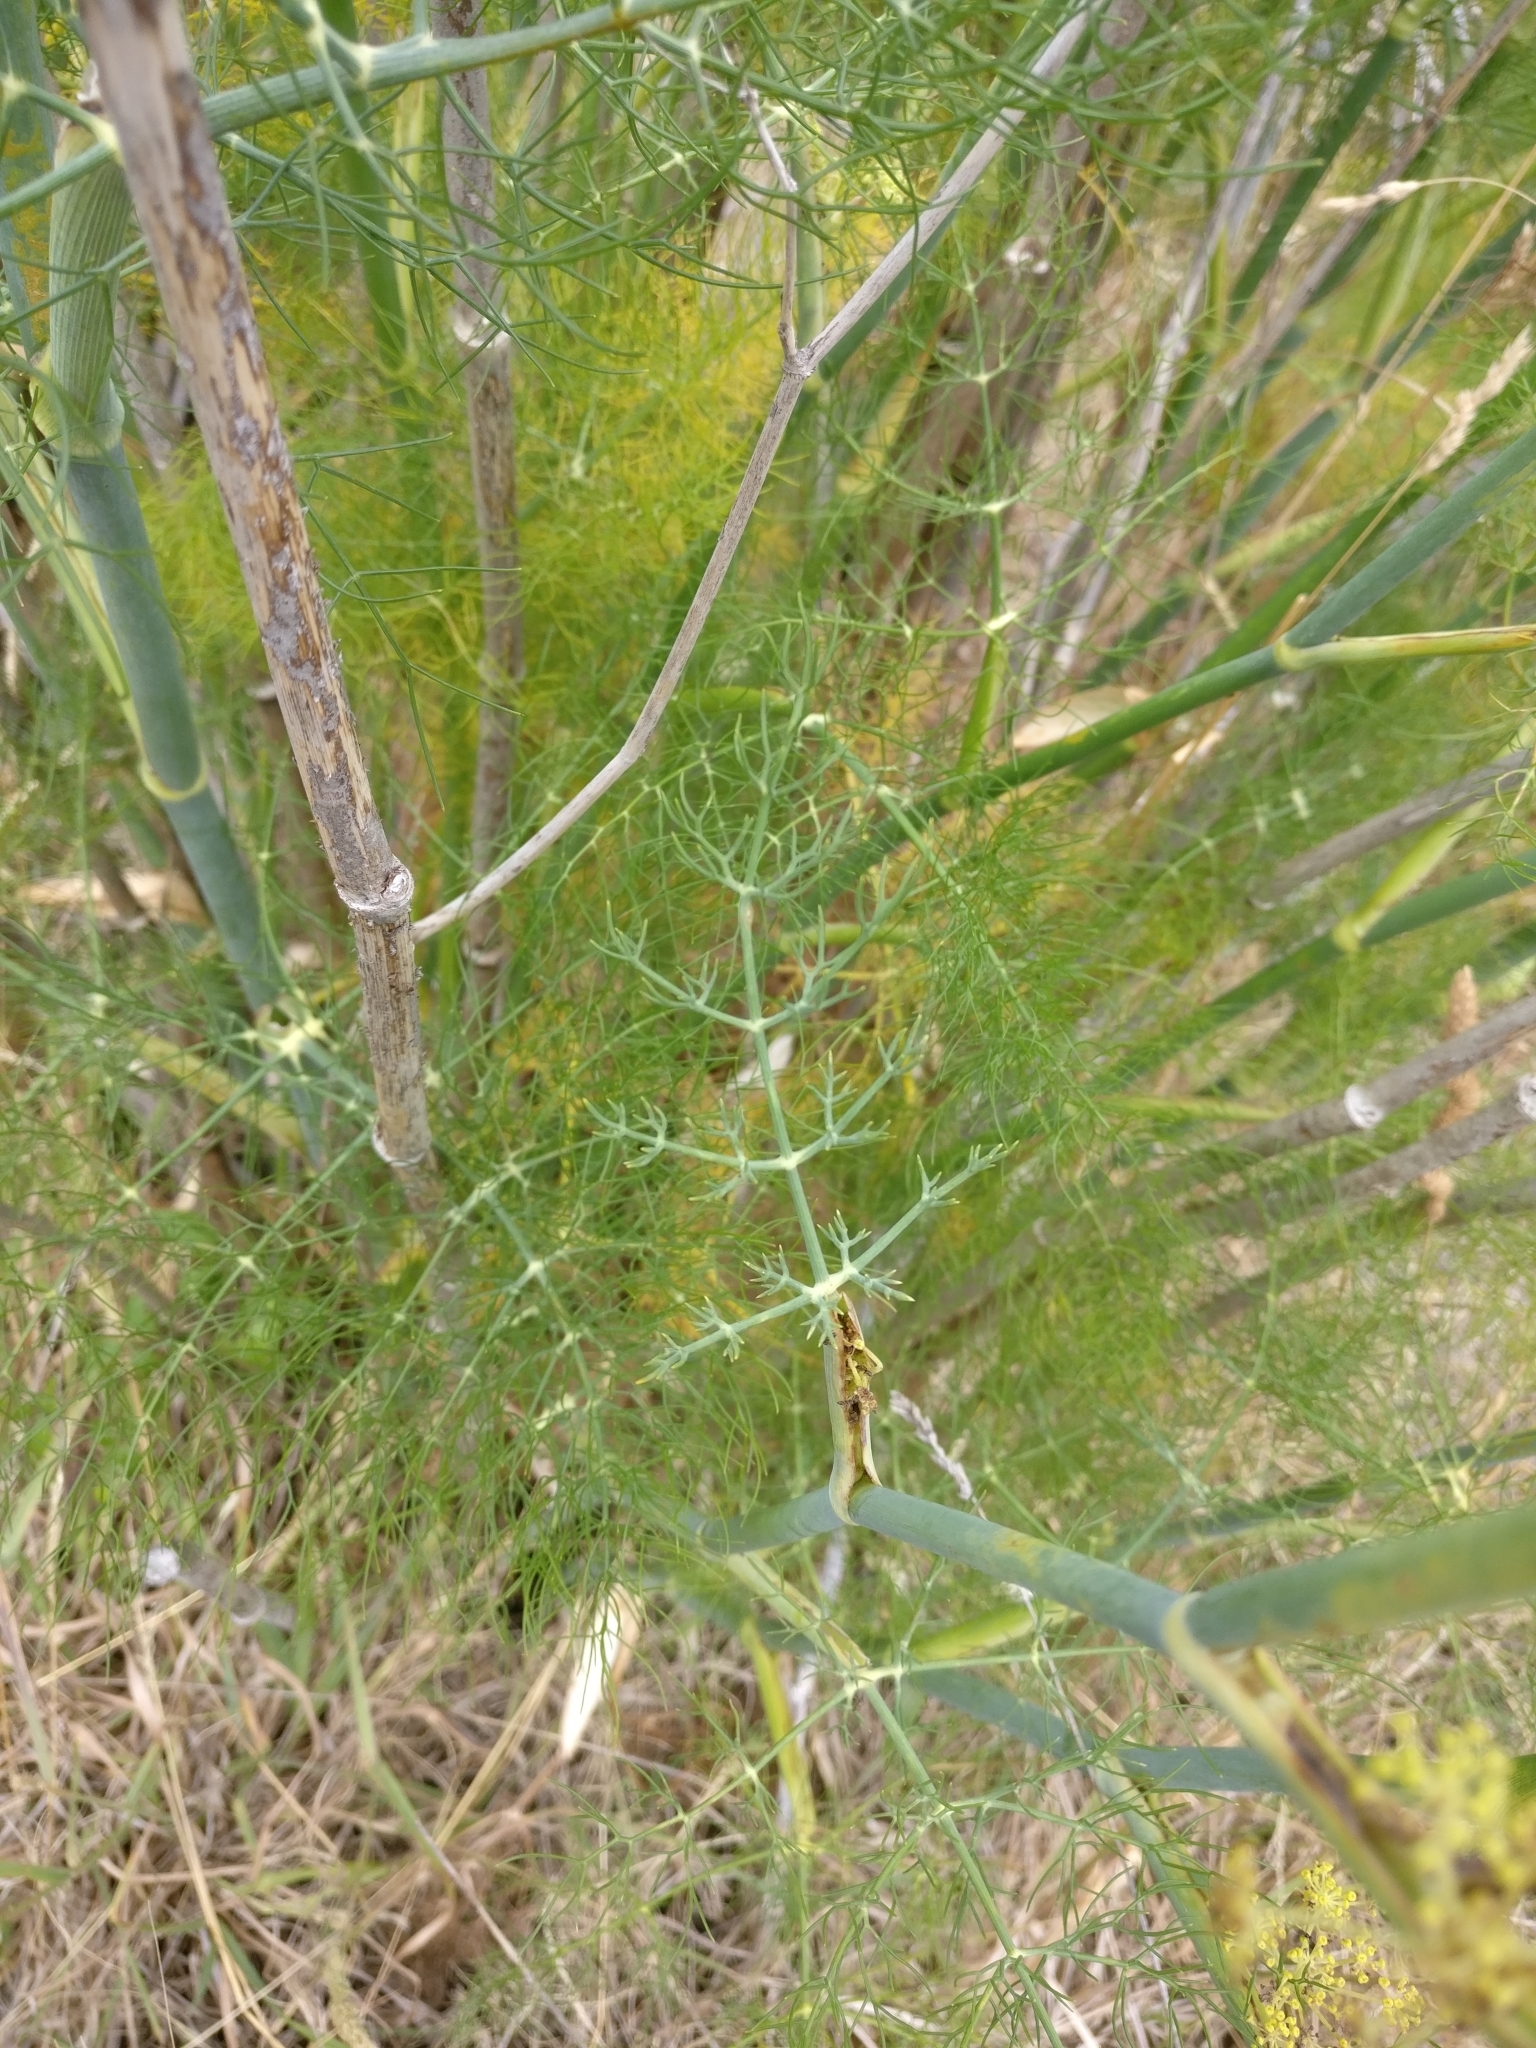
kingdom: Plantae
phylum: Tracheophyta
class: Magnoliopsida
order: Apiales
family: Apiaceae
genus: Foeniculum
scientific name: Foeniculum vulgare
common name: Fennel
